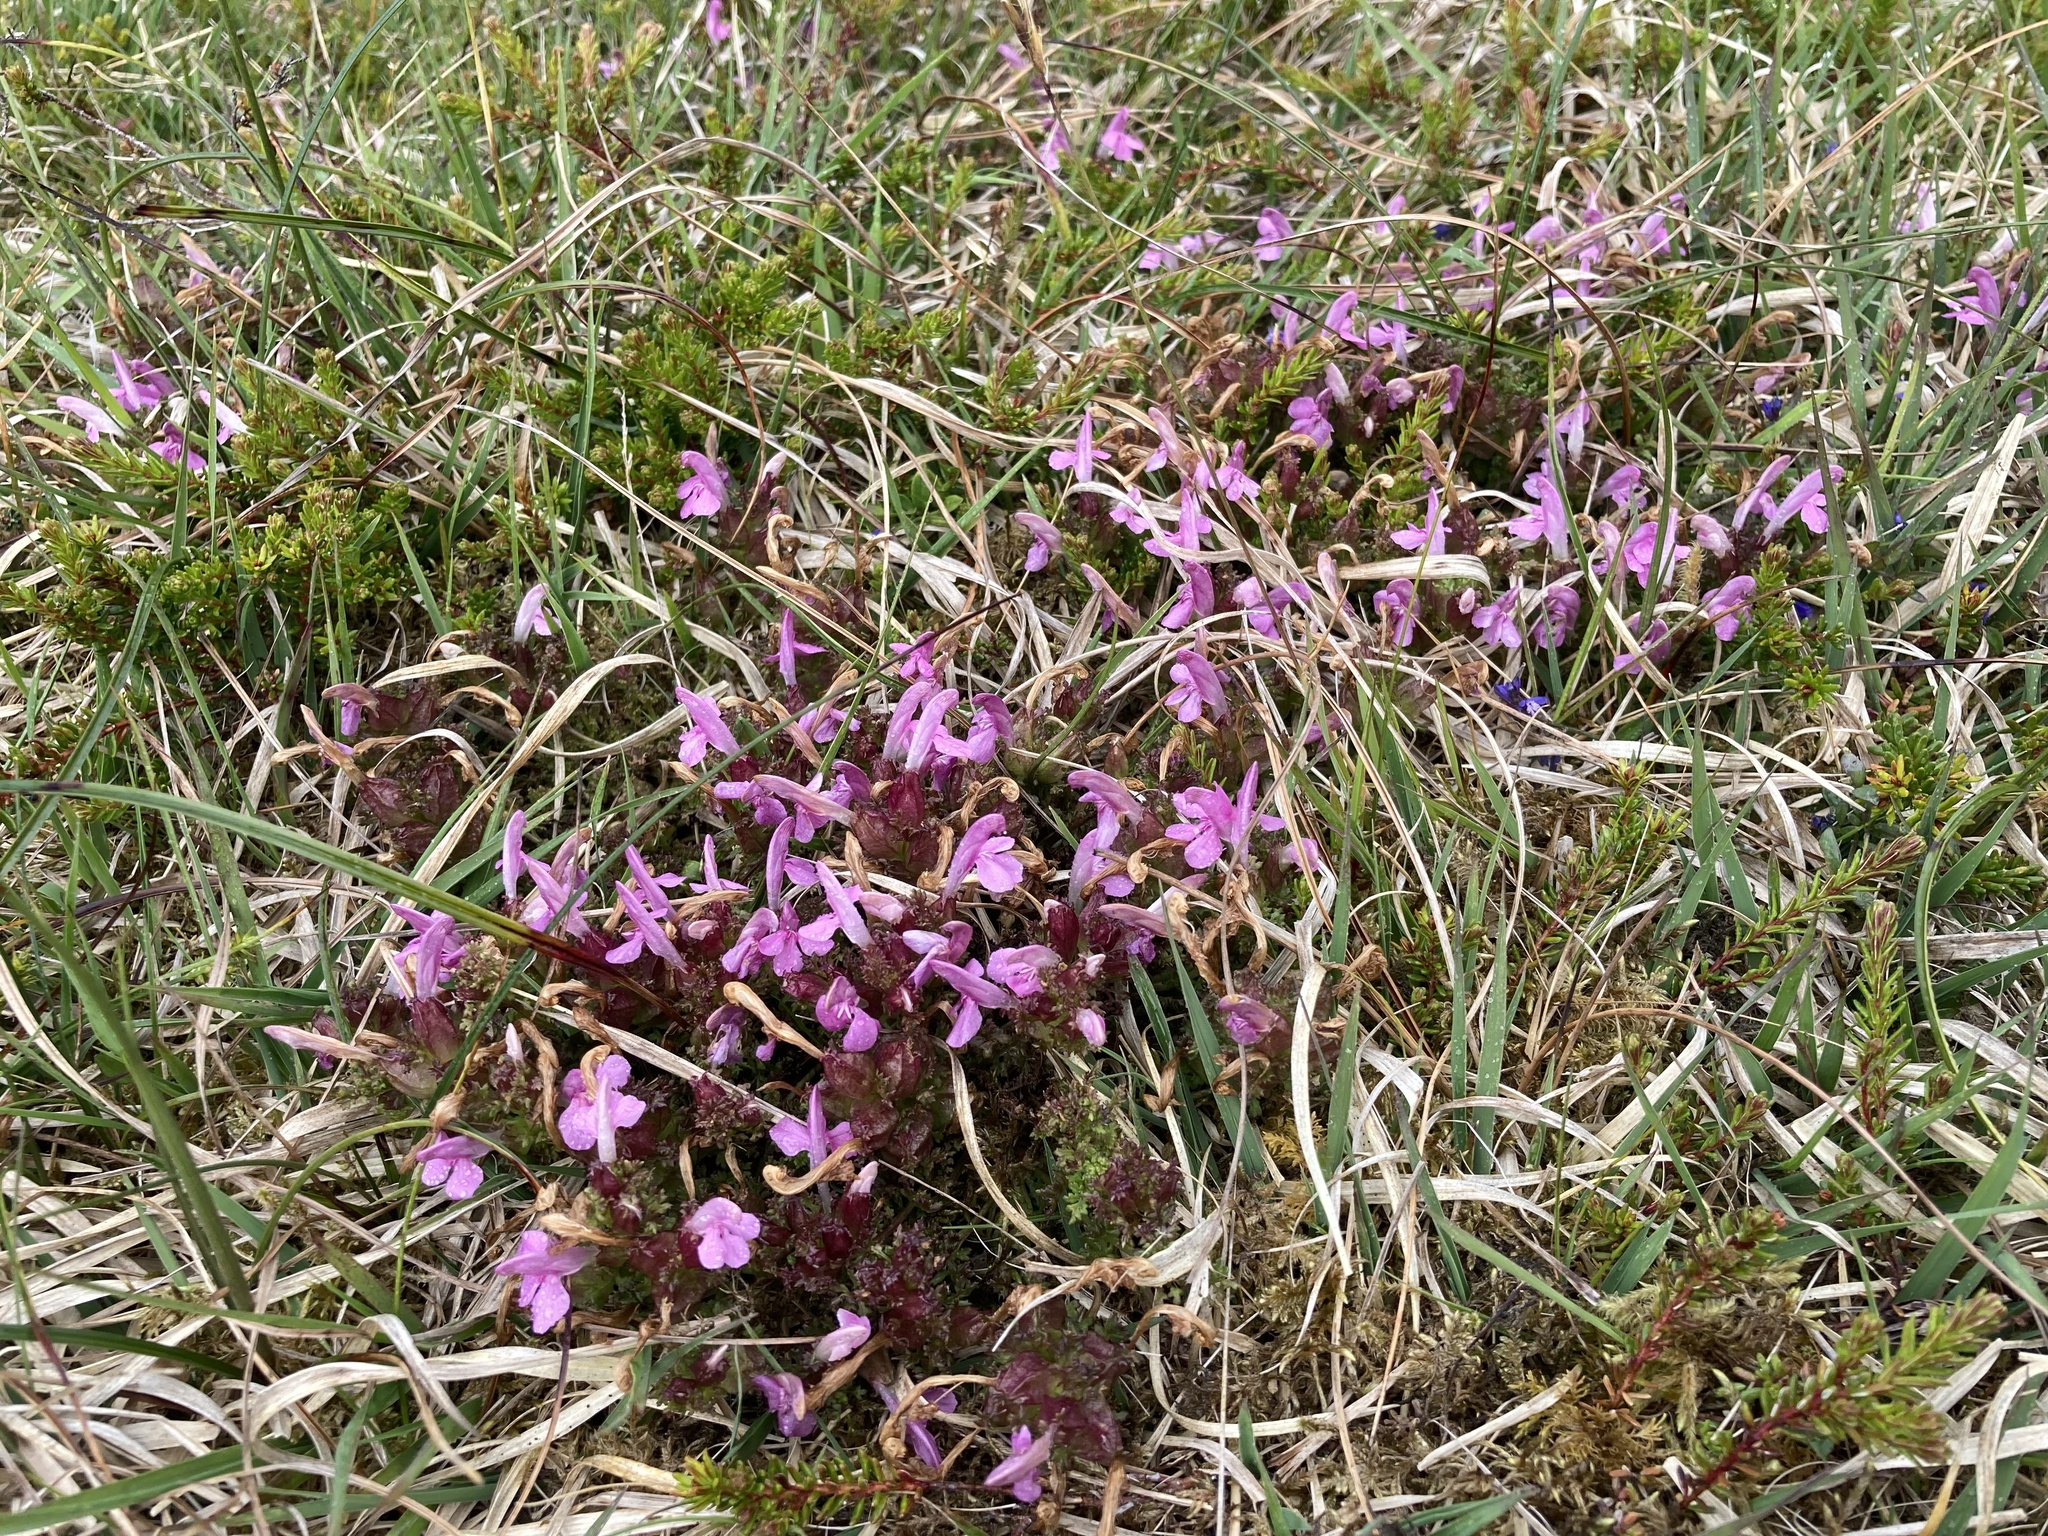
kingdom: Plantae
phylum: Tracheophyta
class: Magnoliopsida
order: Lamiales
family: Orobanchaceae
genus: Pedicularis
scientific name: Pedicularis sylvatica
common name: Lousewort
